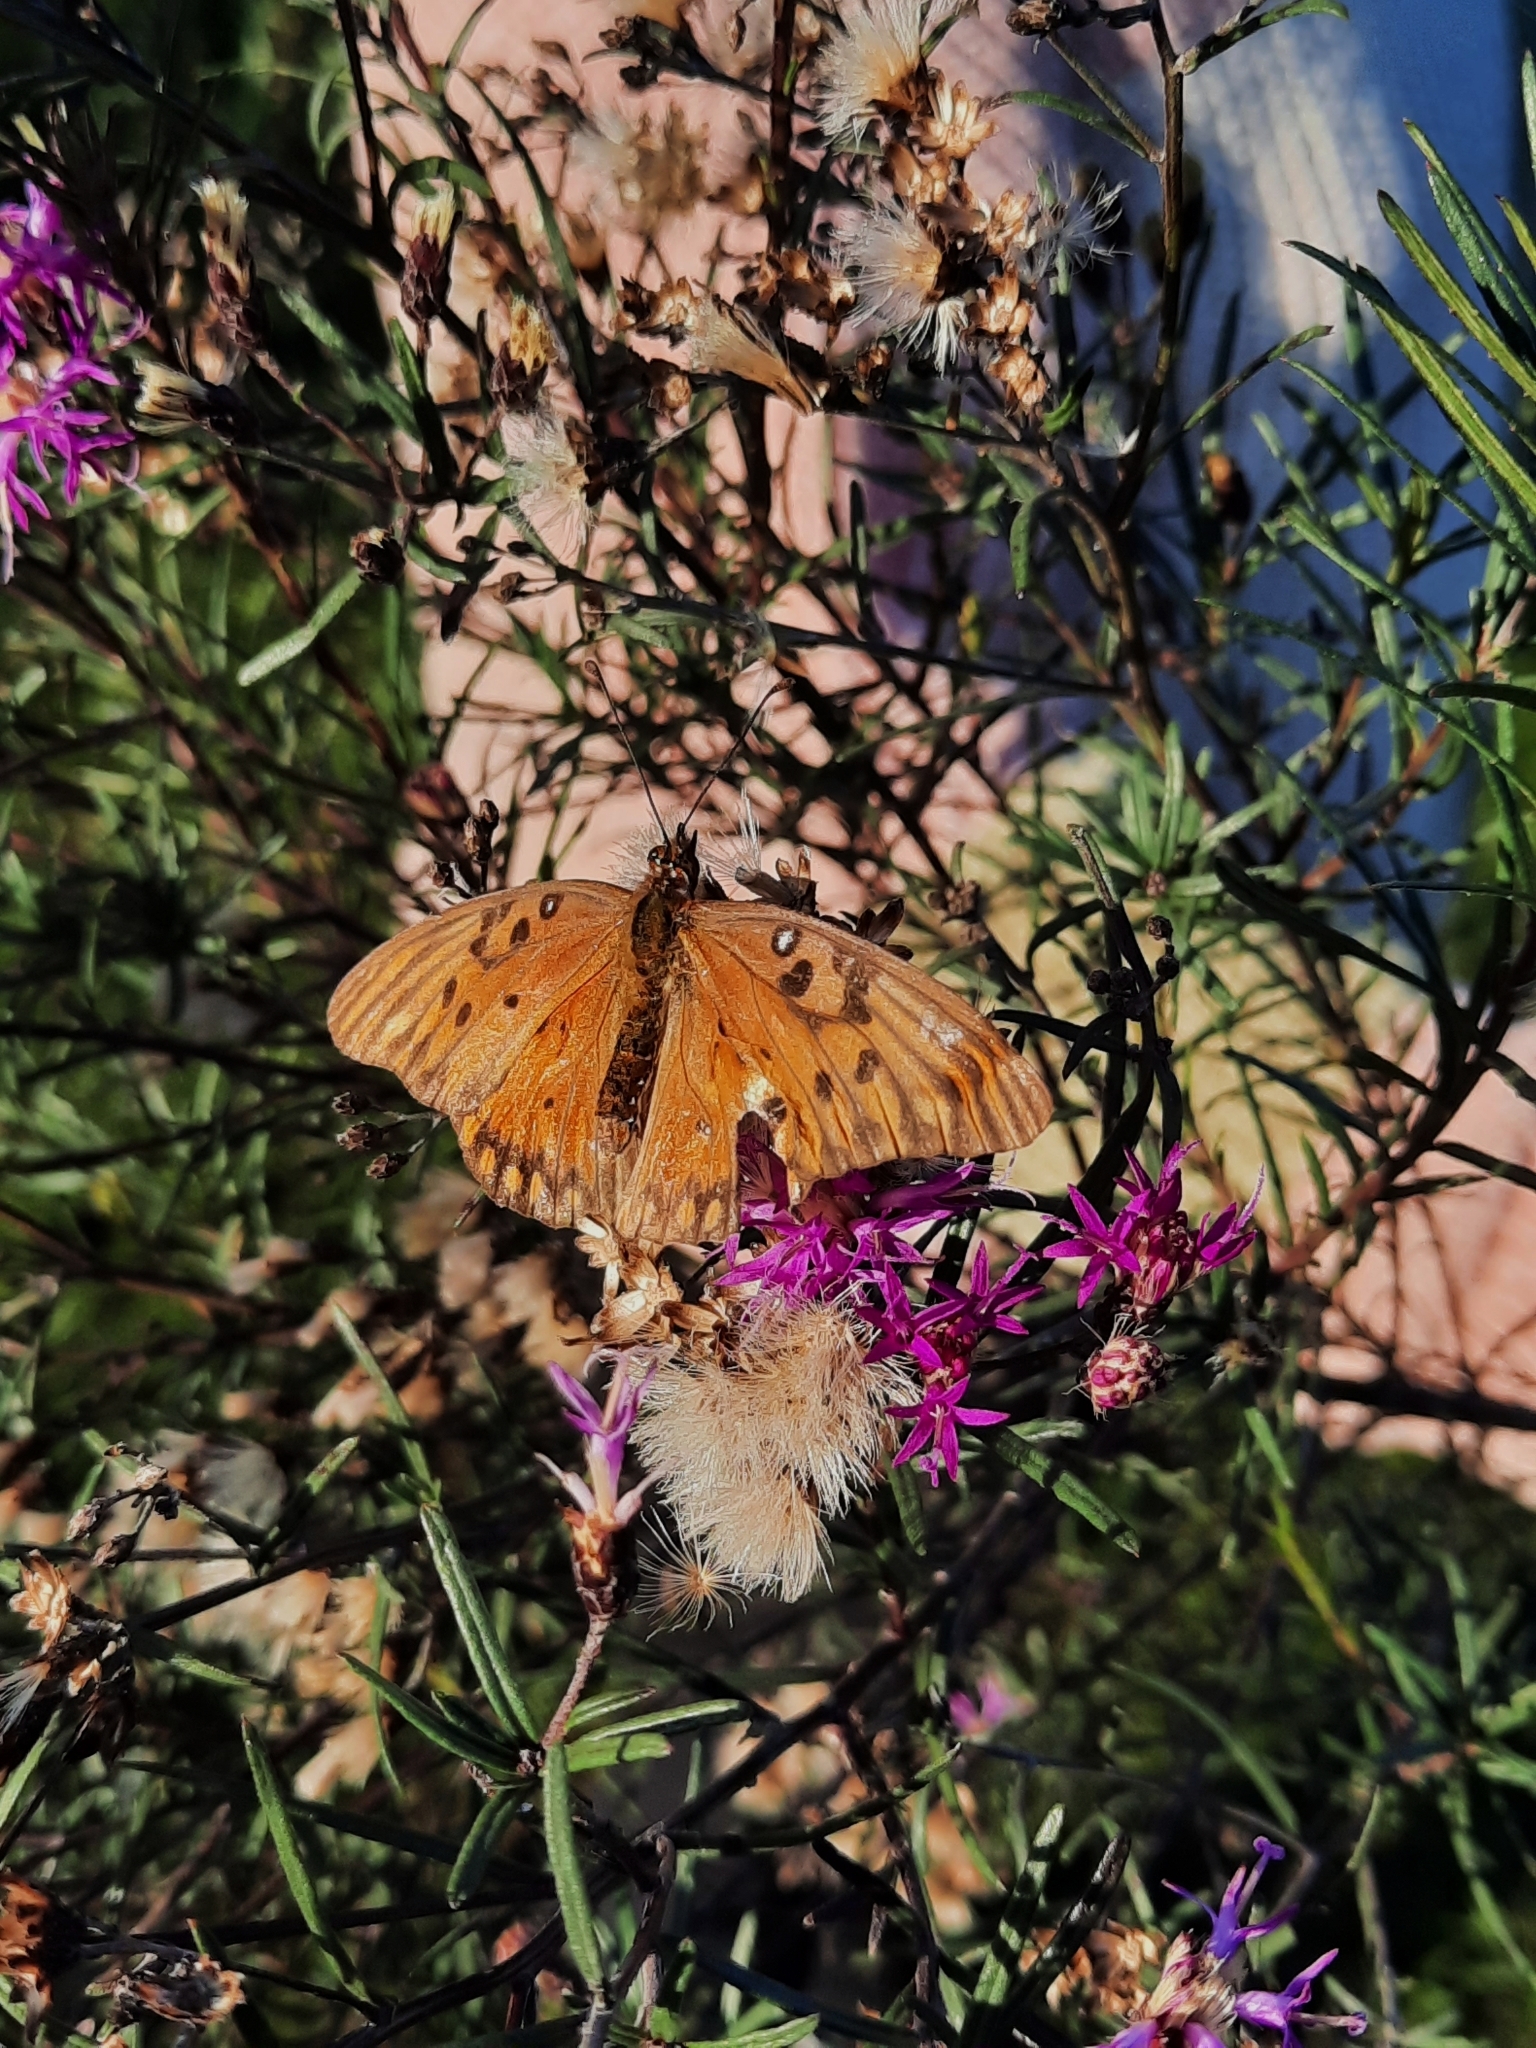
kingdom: Animalia
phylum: Arthropoda
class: Insecta
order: Lepidoptera
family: Nymphalidae
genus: Dione
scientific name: Dione vanillae
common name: Gulf fritillary
